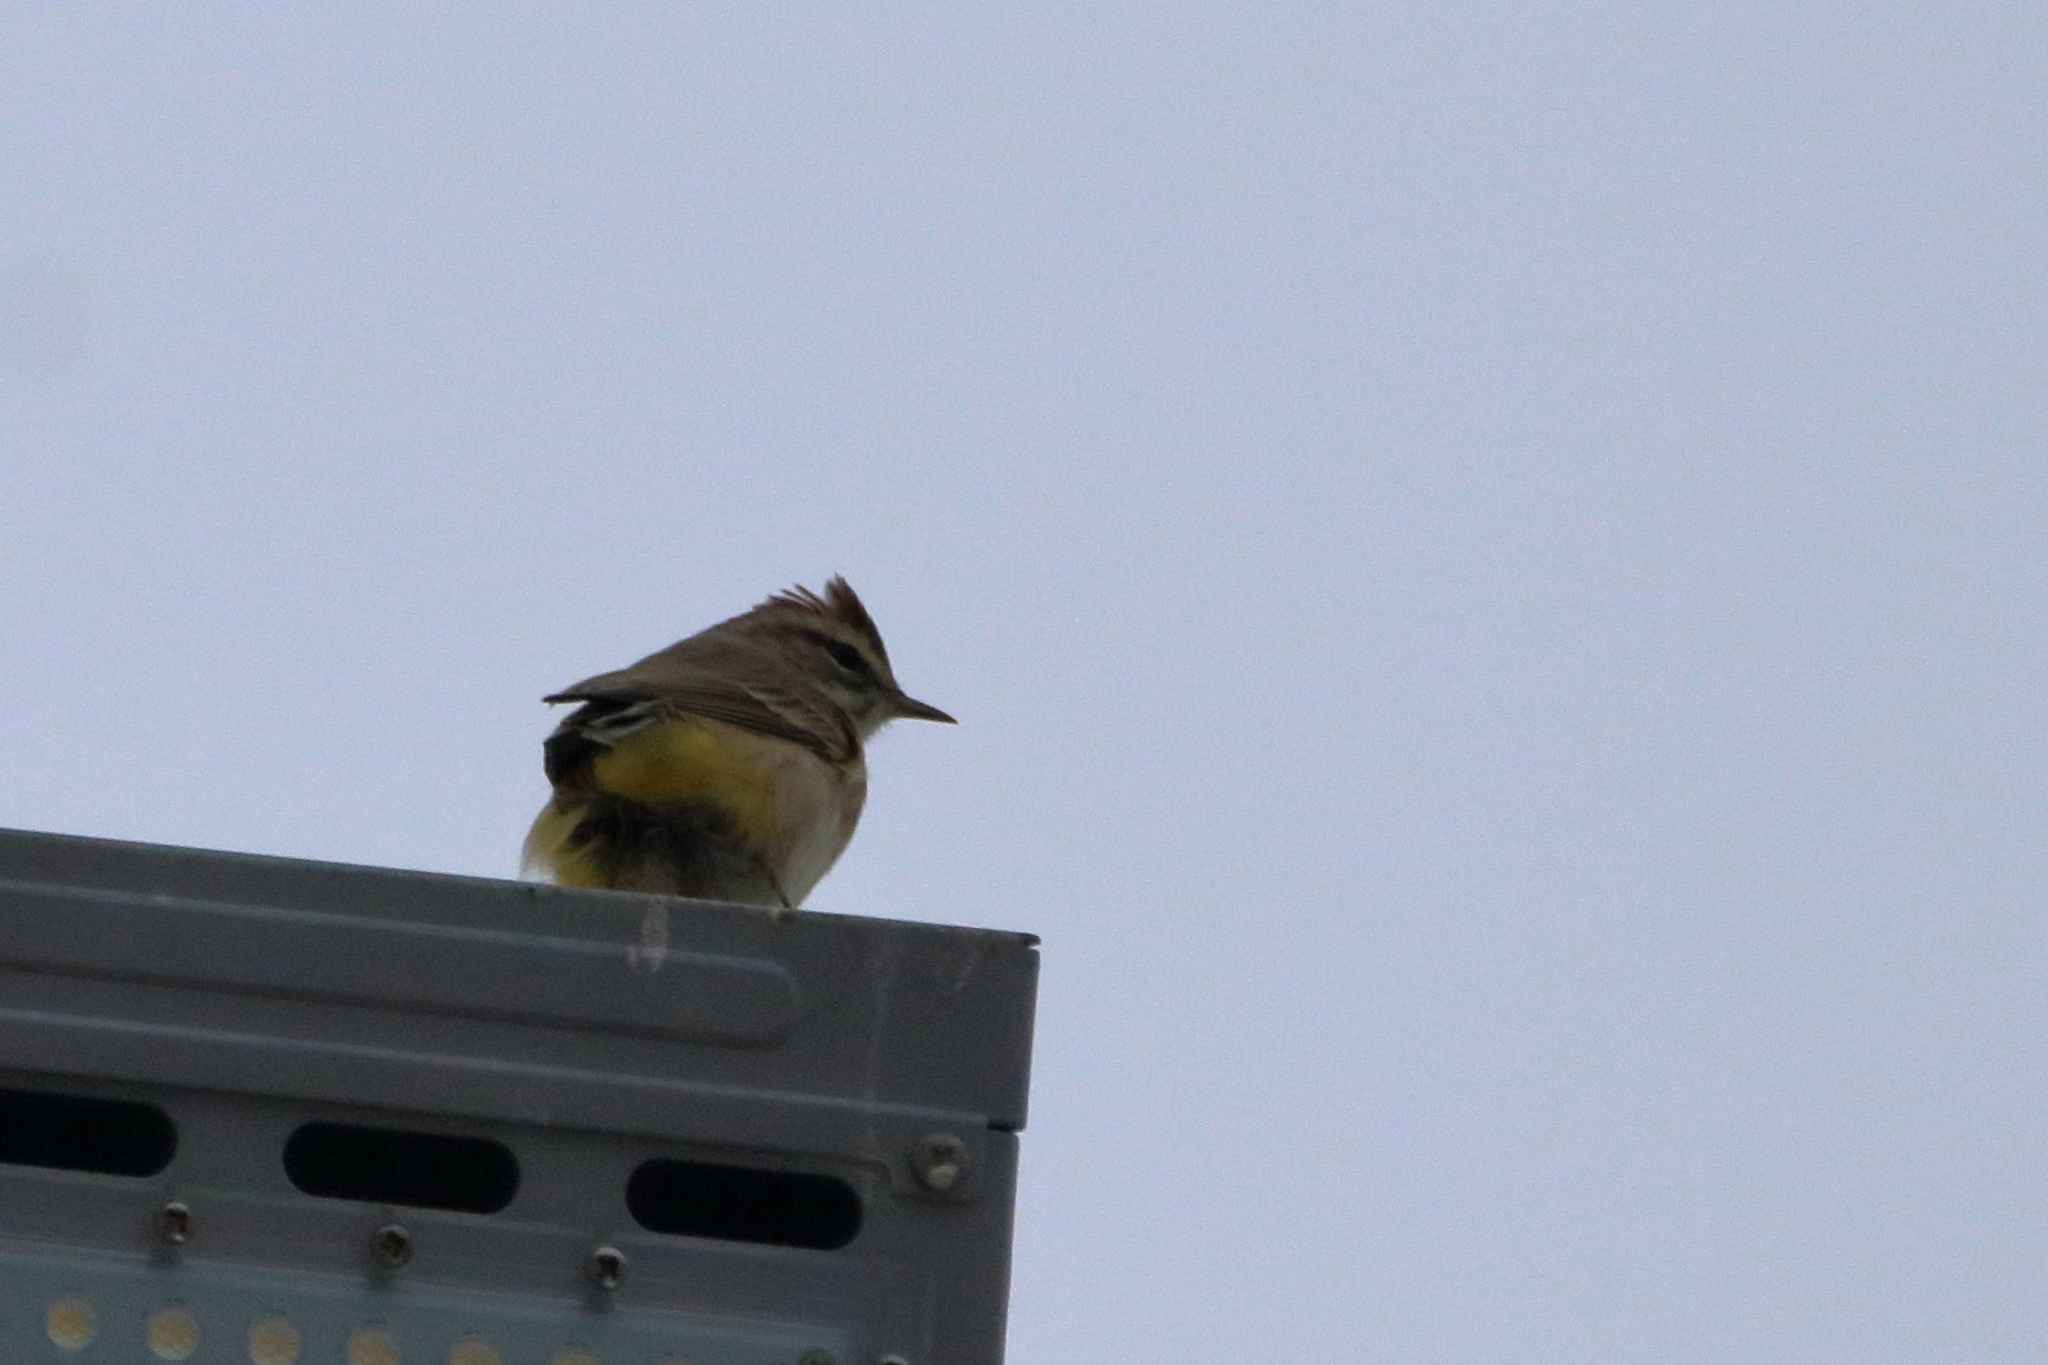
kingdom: Animalia
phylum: Chordata
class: Aves
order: Passeriformes
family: Parulidae
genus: Setophaga
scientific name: Setophaga palmarum
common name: Palm warbler
